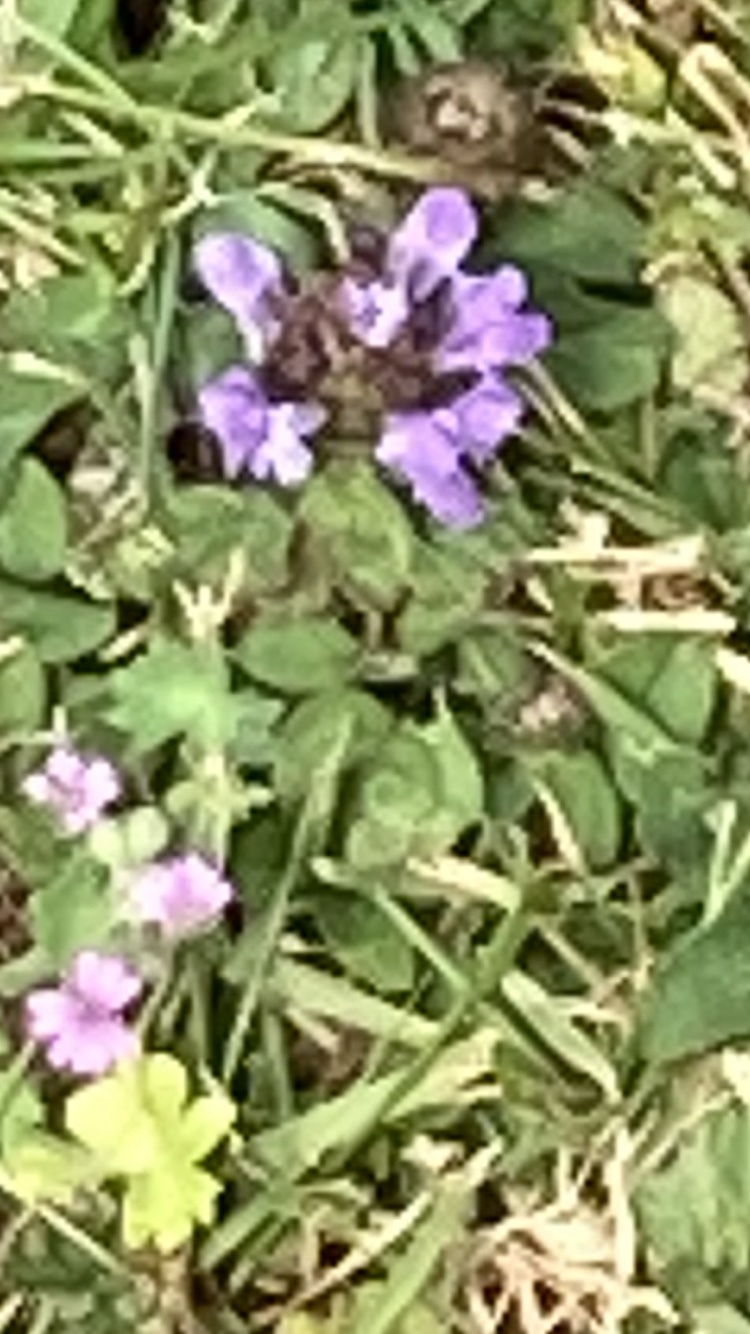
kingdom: Plantae
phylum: Tracheophyta
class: Magnoliopsida
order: Lamiales
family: Lamiaceae
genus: Prunella
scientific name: Prunella vulgaris
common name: Heal-all
